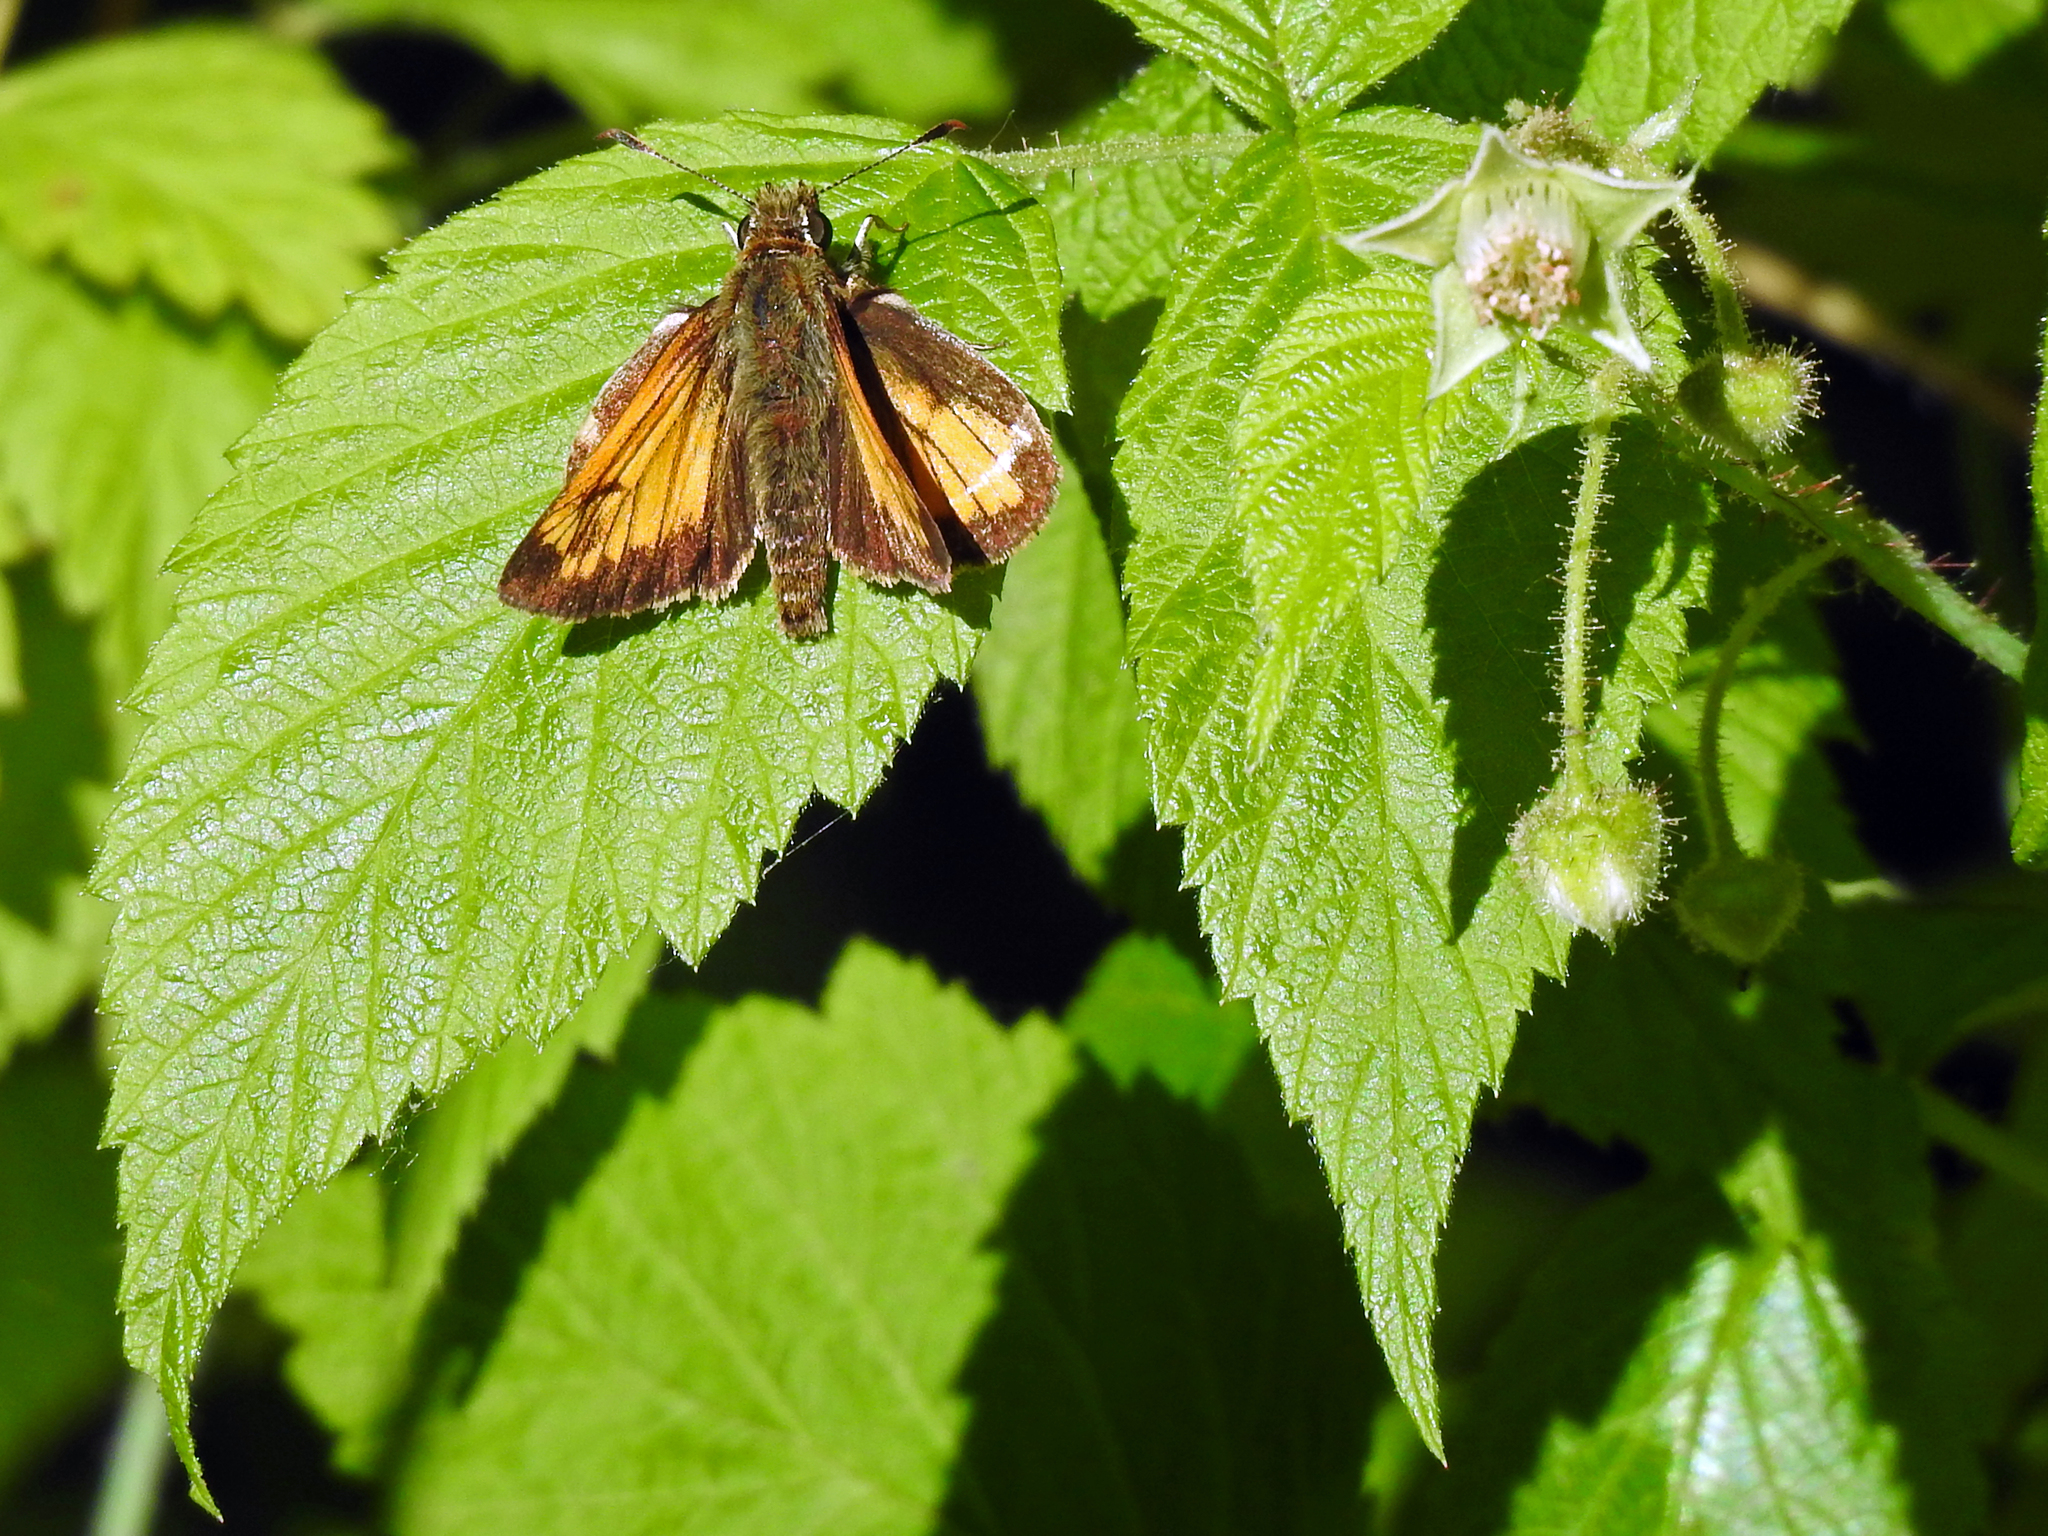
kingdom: Animalia
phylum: Arthropoda
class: Insecta
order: Lepidoptera
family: Hesperiidae
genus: Lon
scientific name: Lon hobomok
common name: Hobomok skipper
